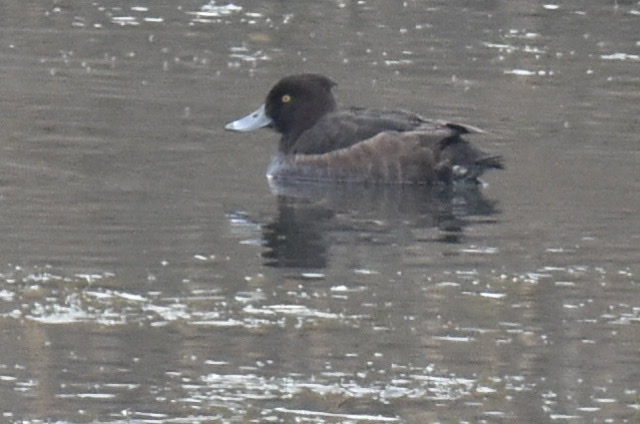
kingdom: Animalia
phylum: Chordata
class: Aves
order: Anseriformes
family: Anatidae
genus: Aythya
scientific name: Aythya fuligula
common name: Tufted duck
